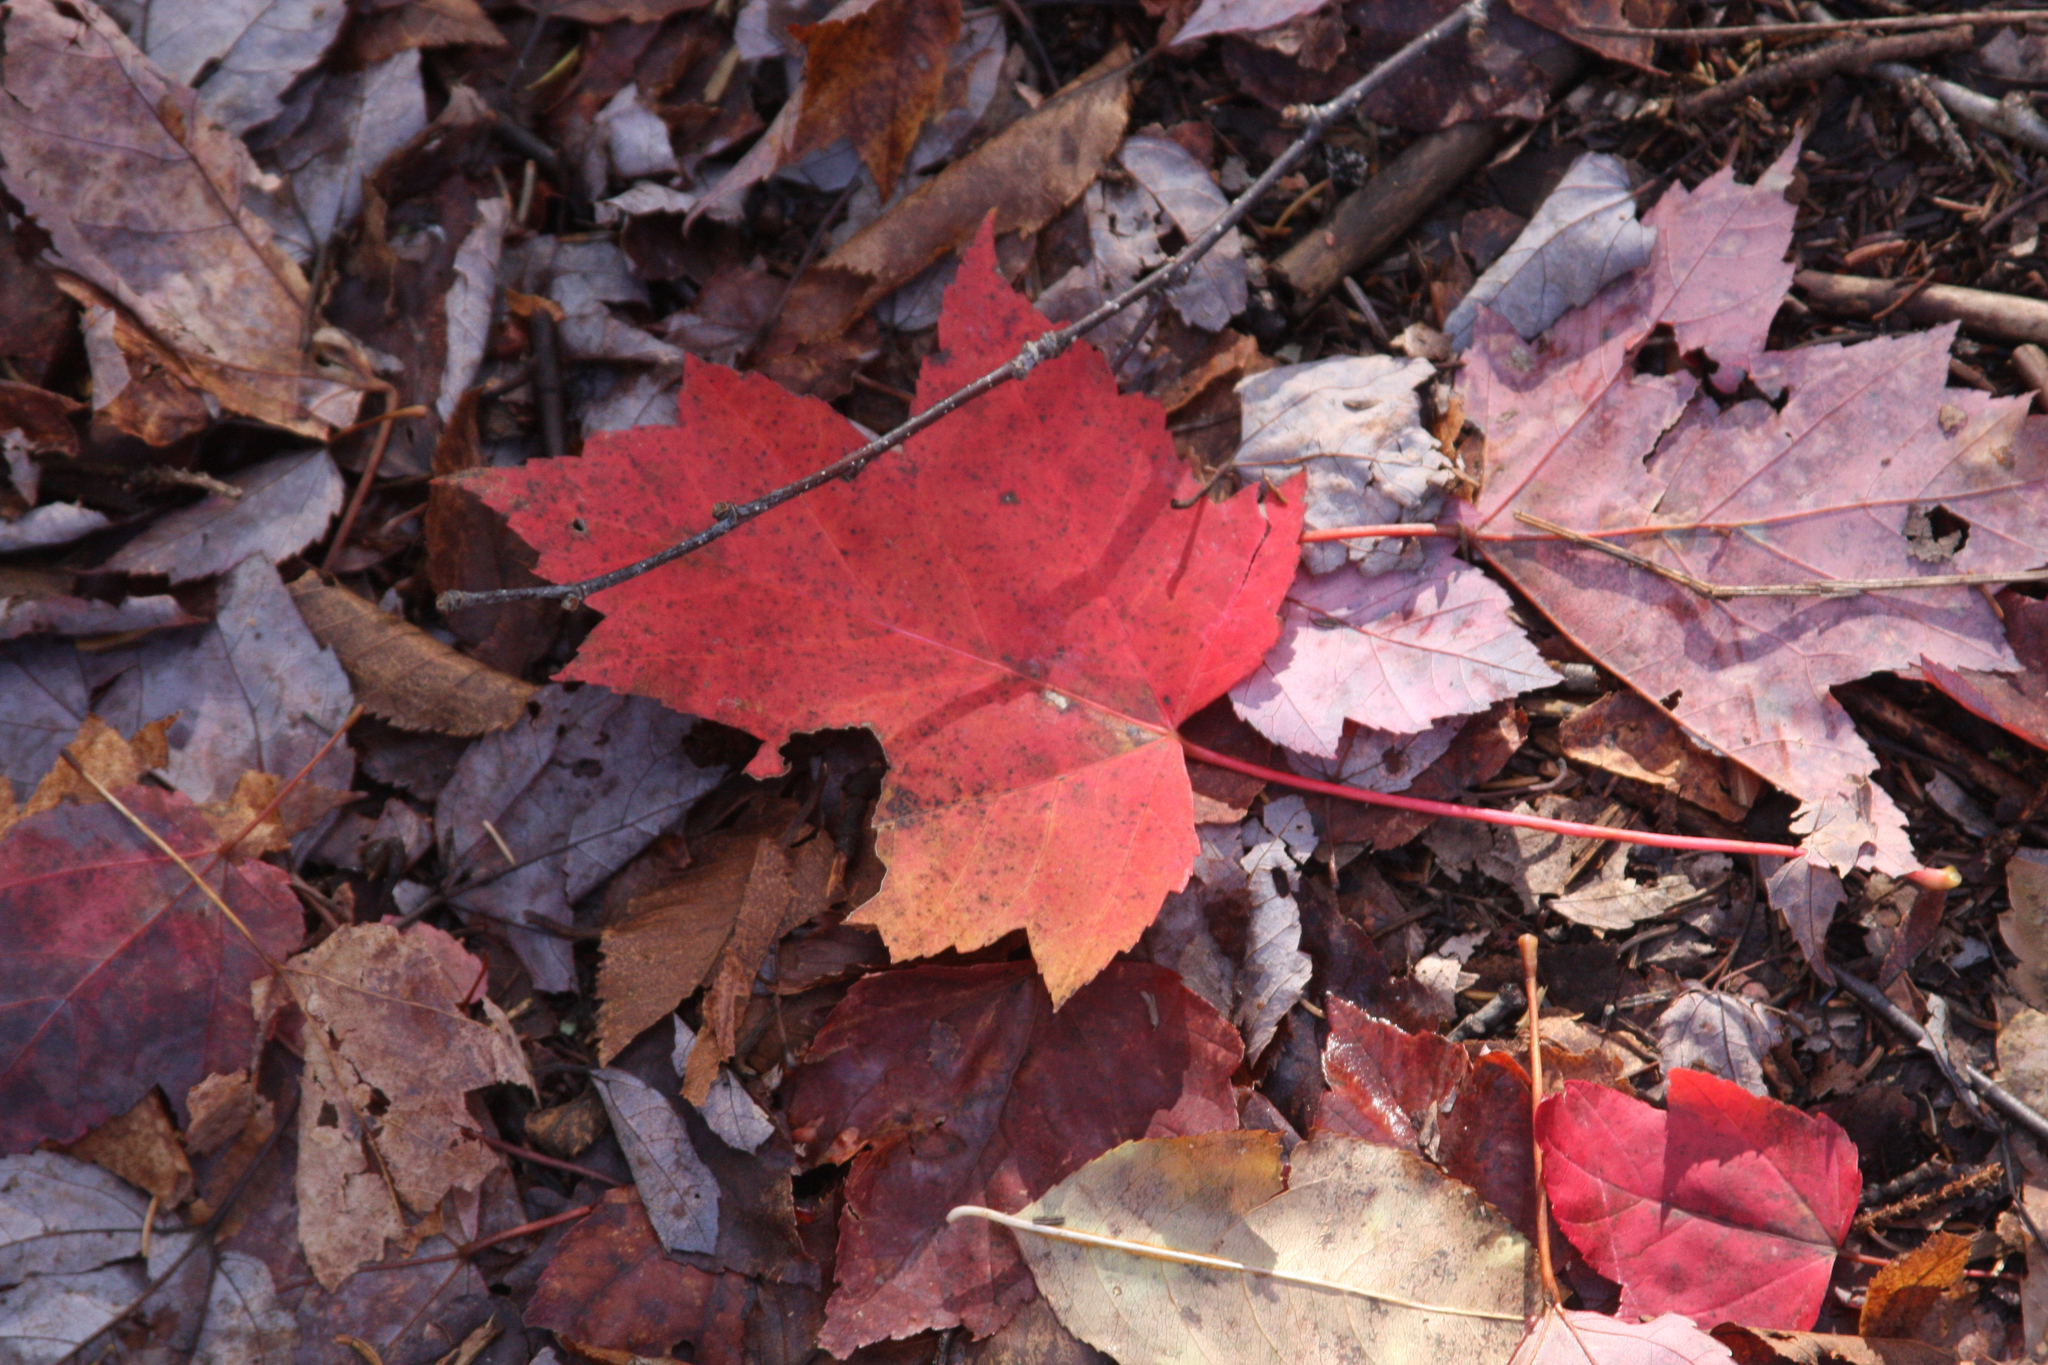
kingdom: Plantae
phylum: Tracheophyta
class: Magnoliopsida
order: Sapindales
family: Sapindaceae
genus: Acer
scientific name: Acer rubrum
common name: Red maple
